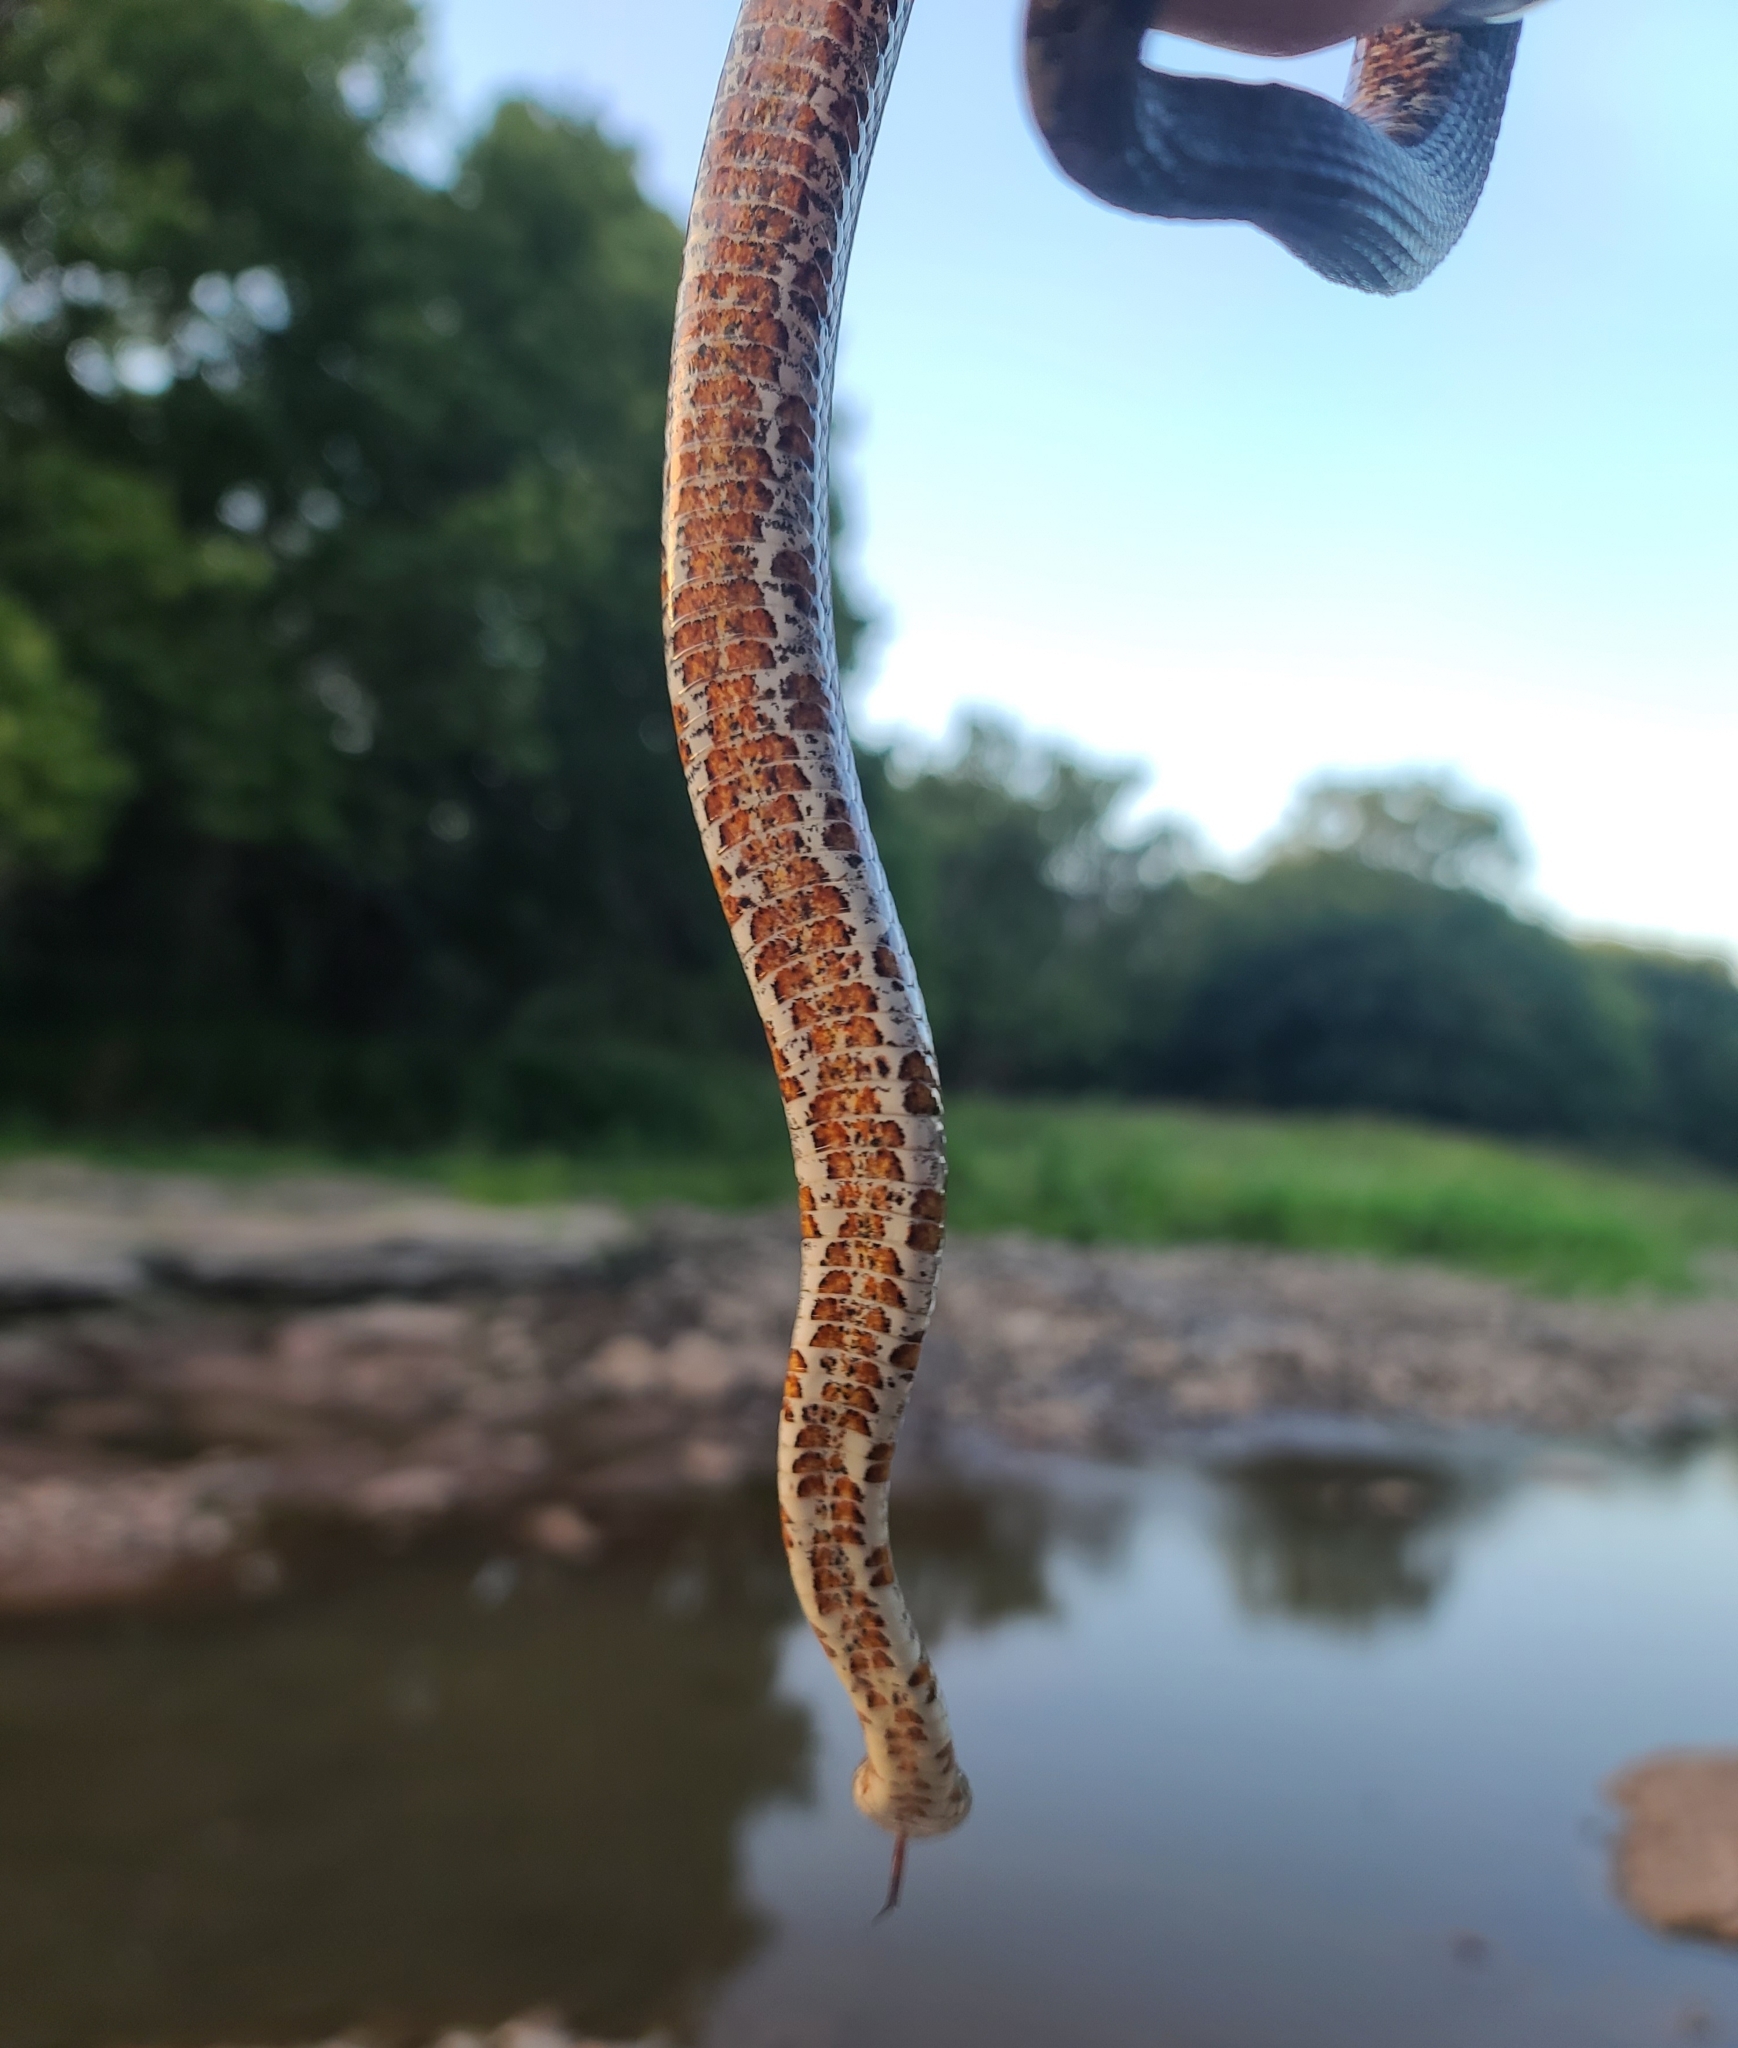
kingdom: Animalia
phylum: Chordata
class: Squamata
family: Colubridae
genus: Nerodia
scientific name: Nerodia sipedon
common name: Northern water snake
